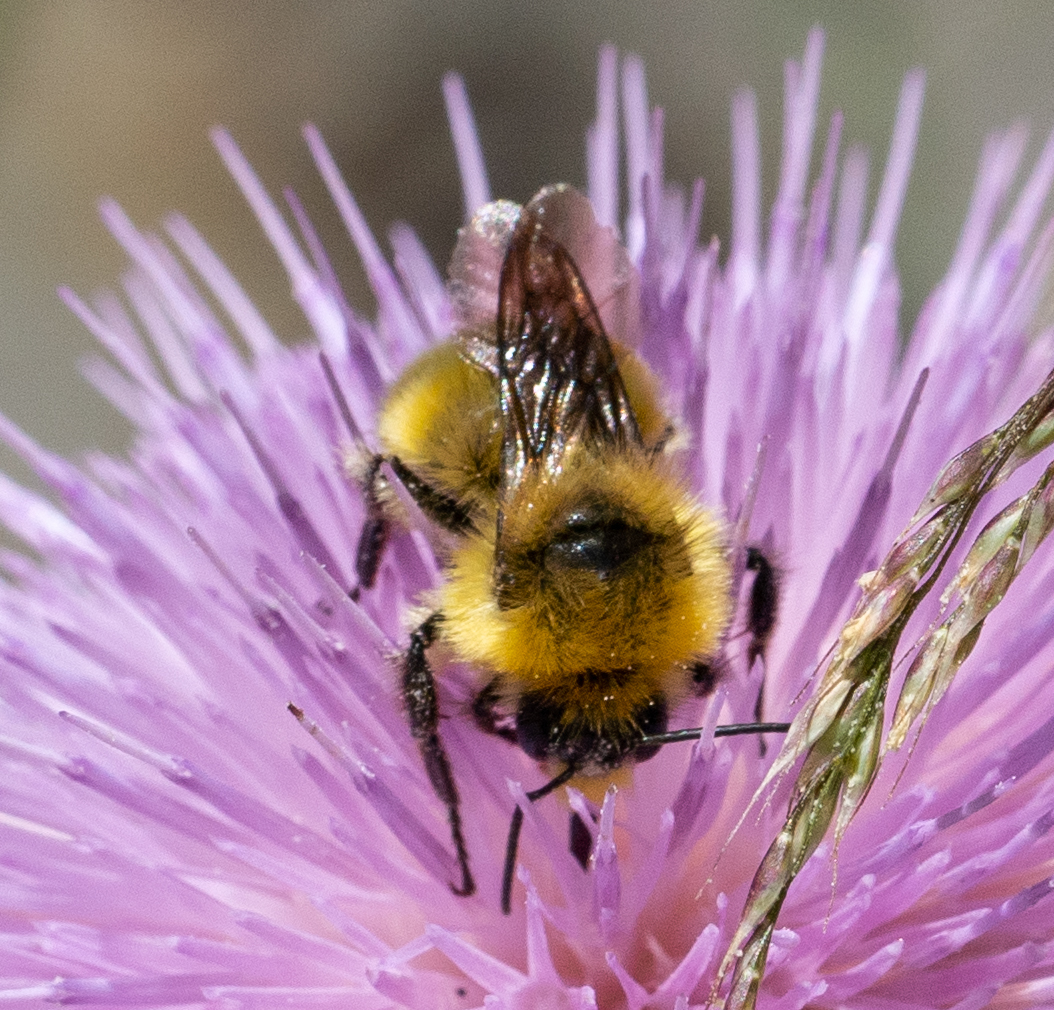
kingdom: Animalia
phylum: Arthropoda
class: Insecta
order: Hymenoptera
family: Apidae
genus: Bombus
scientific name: Bombus vandykei
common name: Van dyke bumble bee
